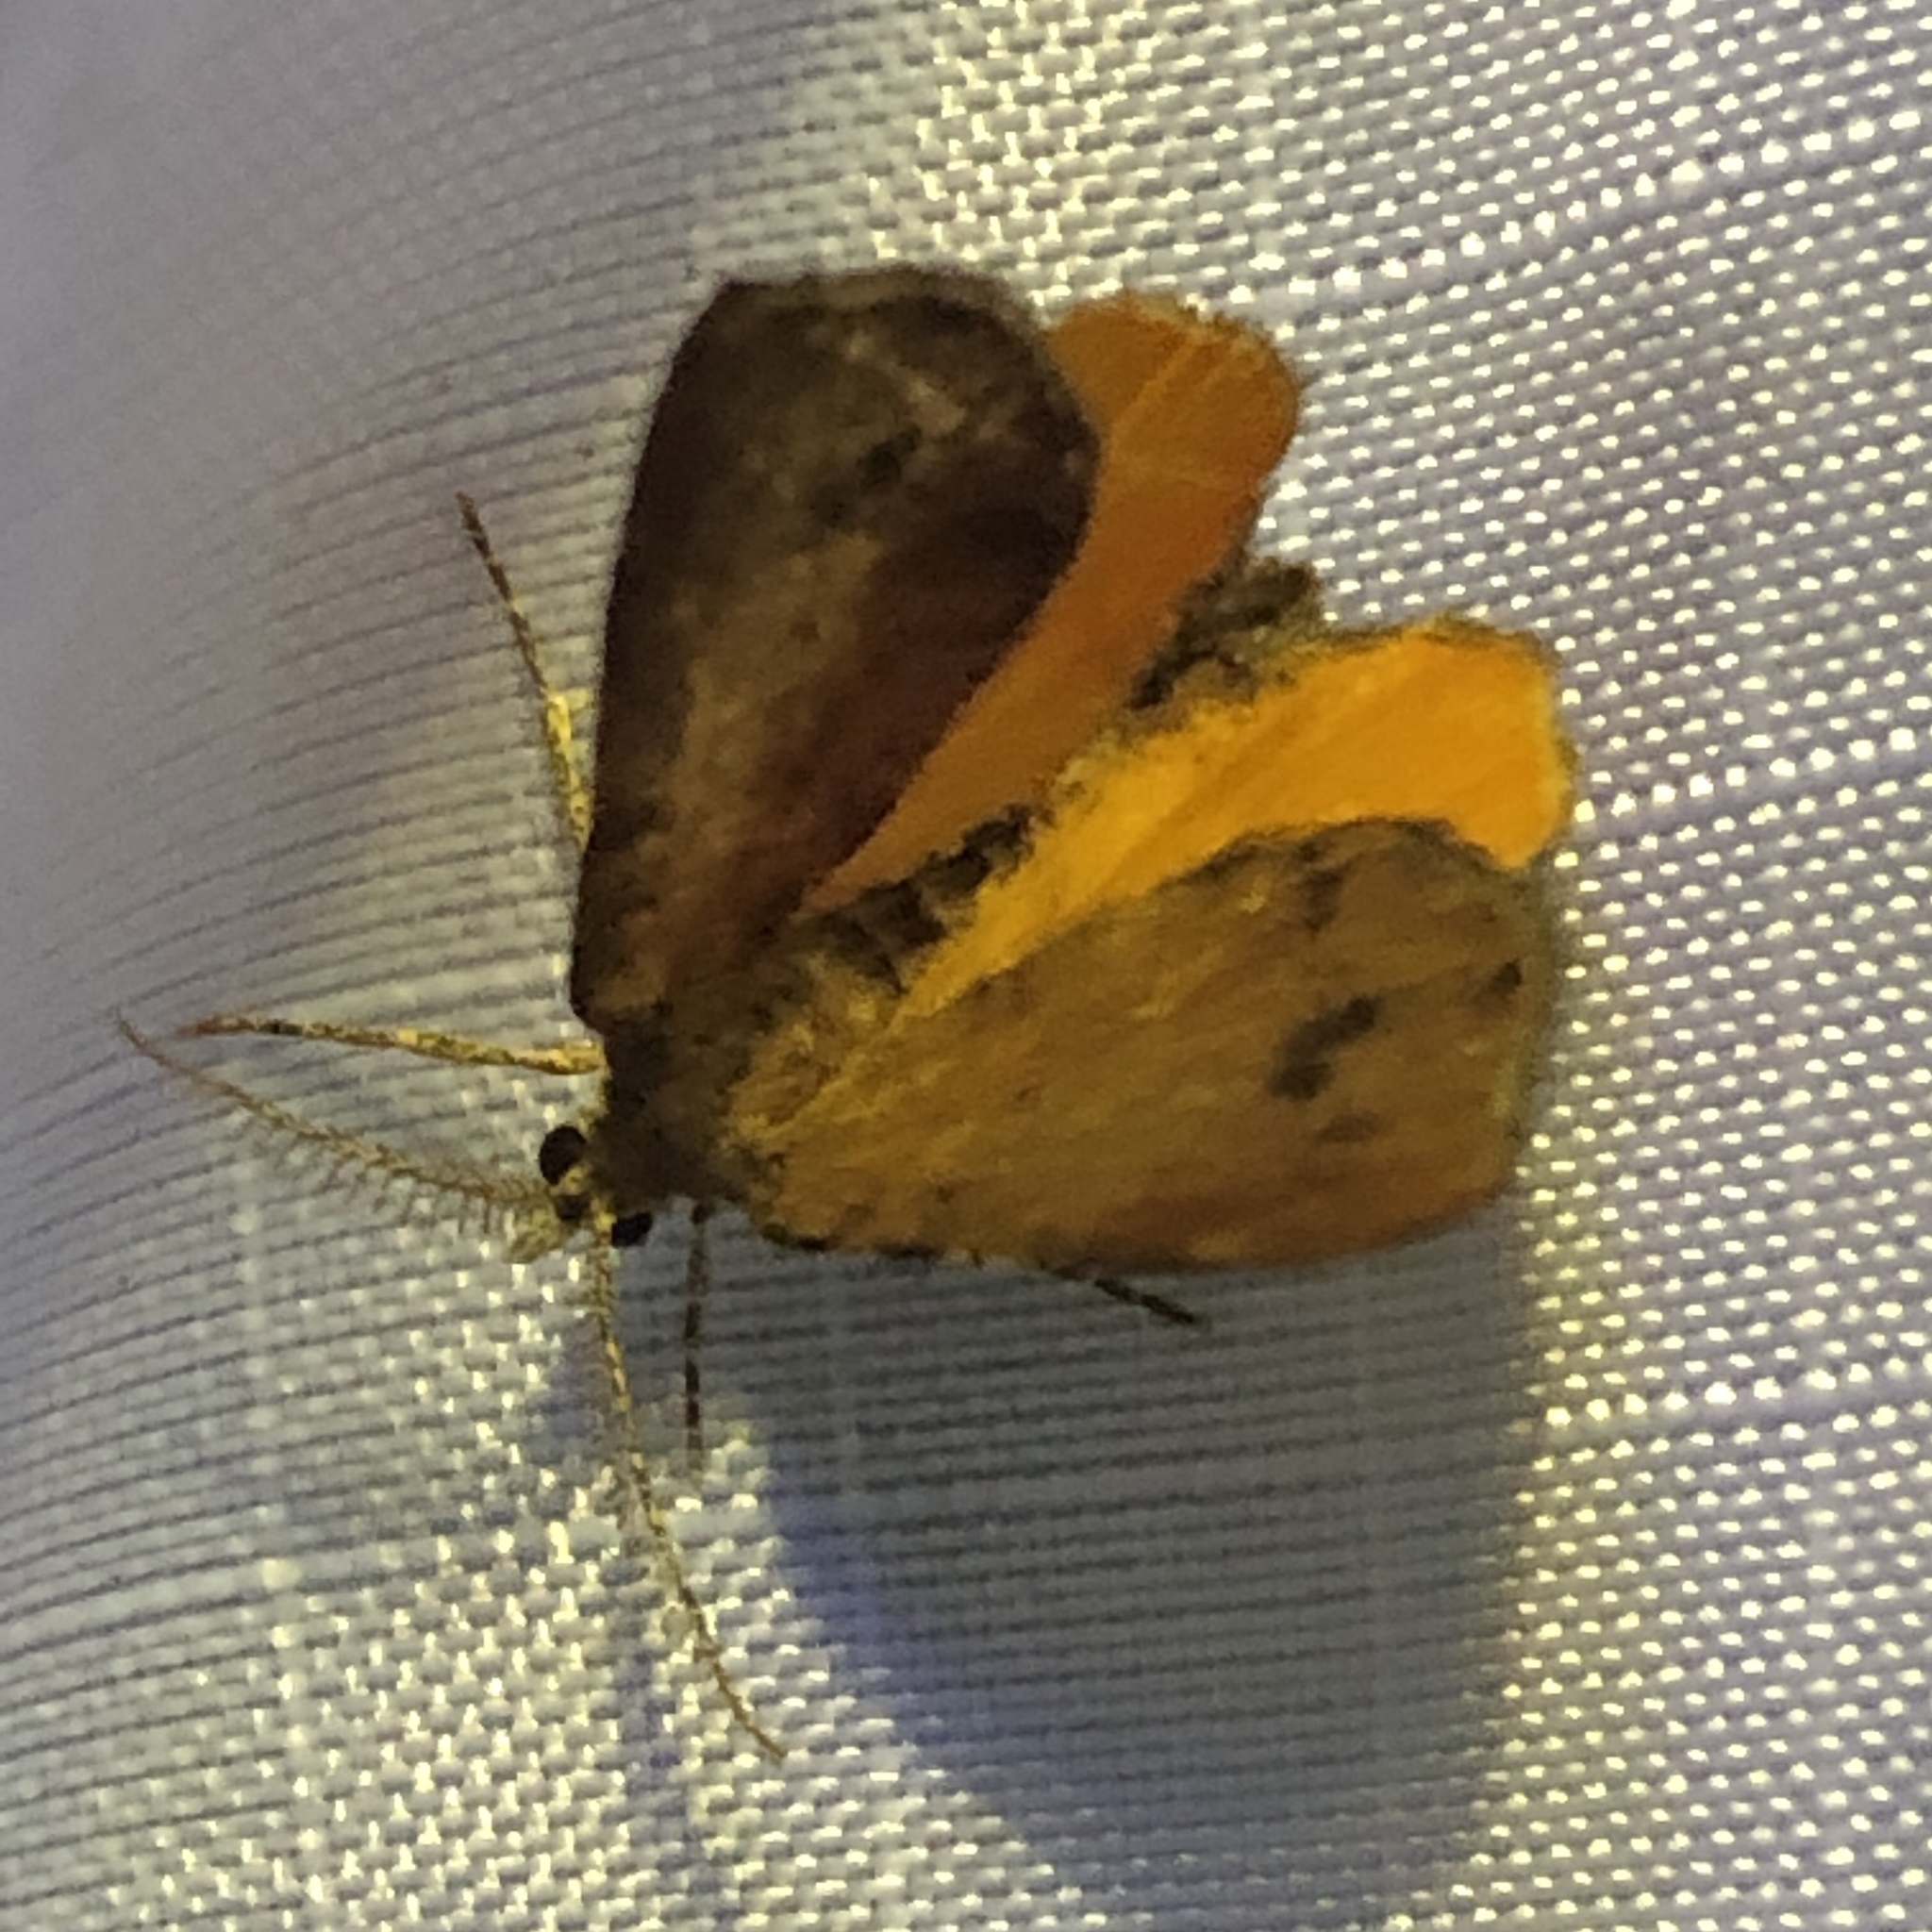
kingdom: Animalia
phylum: Arthropoda
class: Insecta
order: Lepidoptera
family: Geometridae
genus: Mellilla
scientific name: Mellilla xanthometata
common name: Orange wing moth
